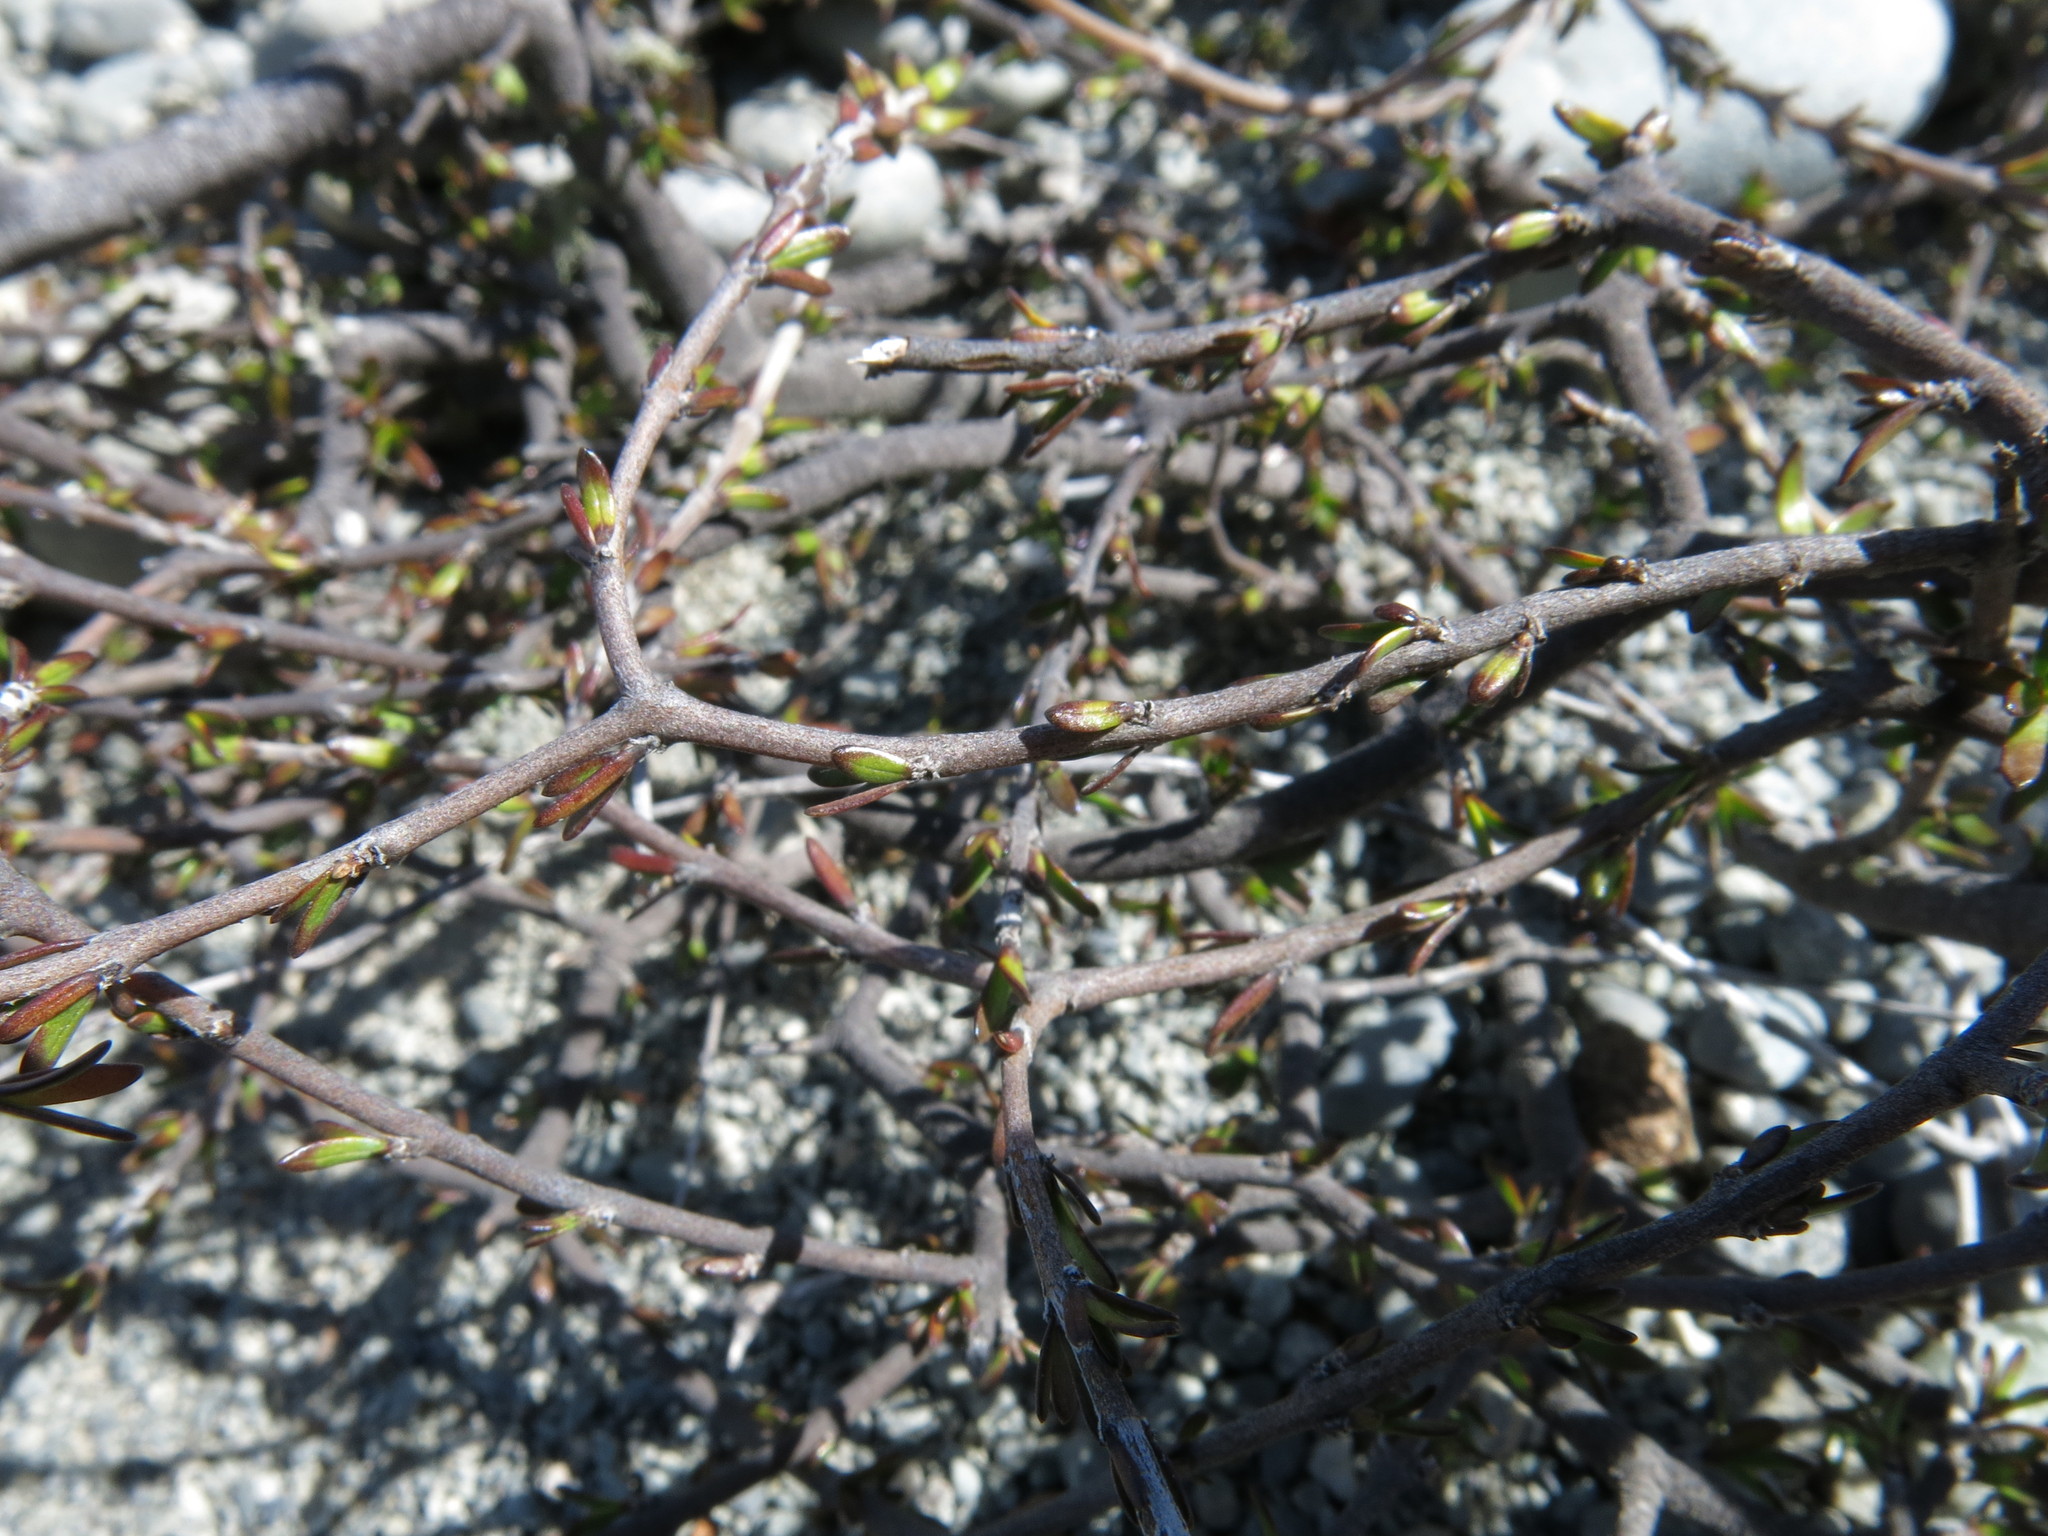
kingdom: Plantae
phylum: Tracheophyta
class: Magnoliopsida
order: Gentianales
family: Rubiaceae
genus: Coprosma
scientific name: Coprosma acerosa
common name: Sand coprosma
